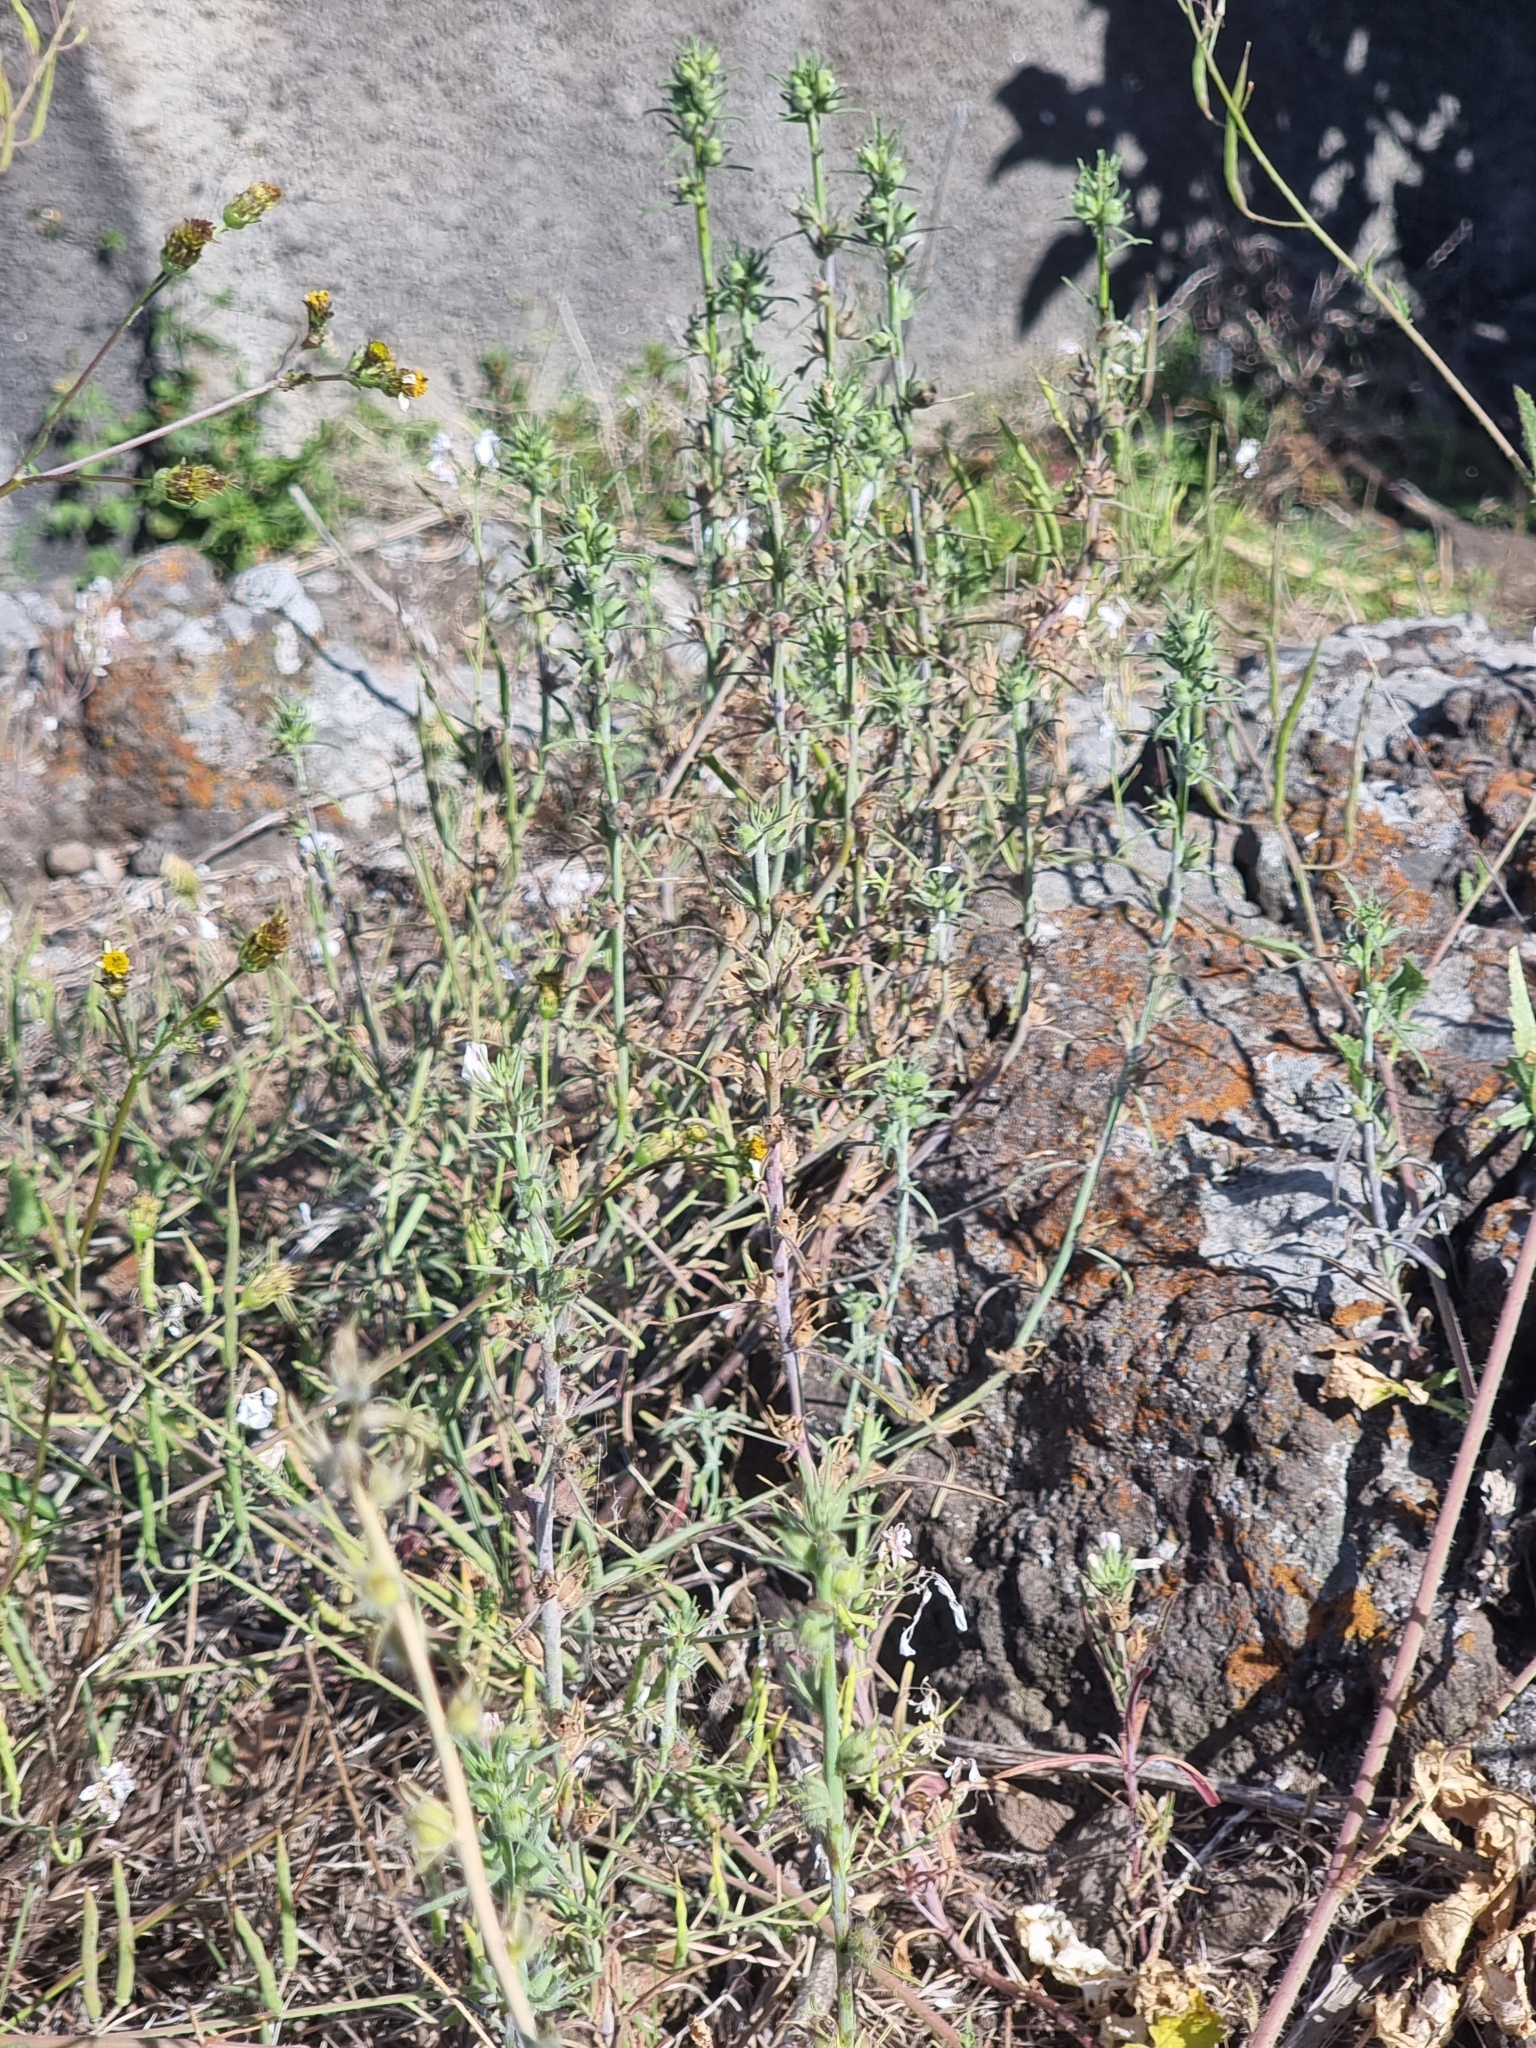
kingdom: Plantae
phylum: Tracheophyta
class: Magnoliopsida
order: Lamiales
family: Plantaginaceae
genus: Misopates
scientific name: Misopates orontium
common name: Weasel's-snout
